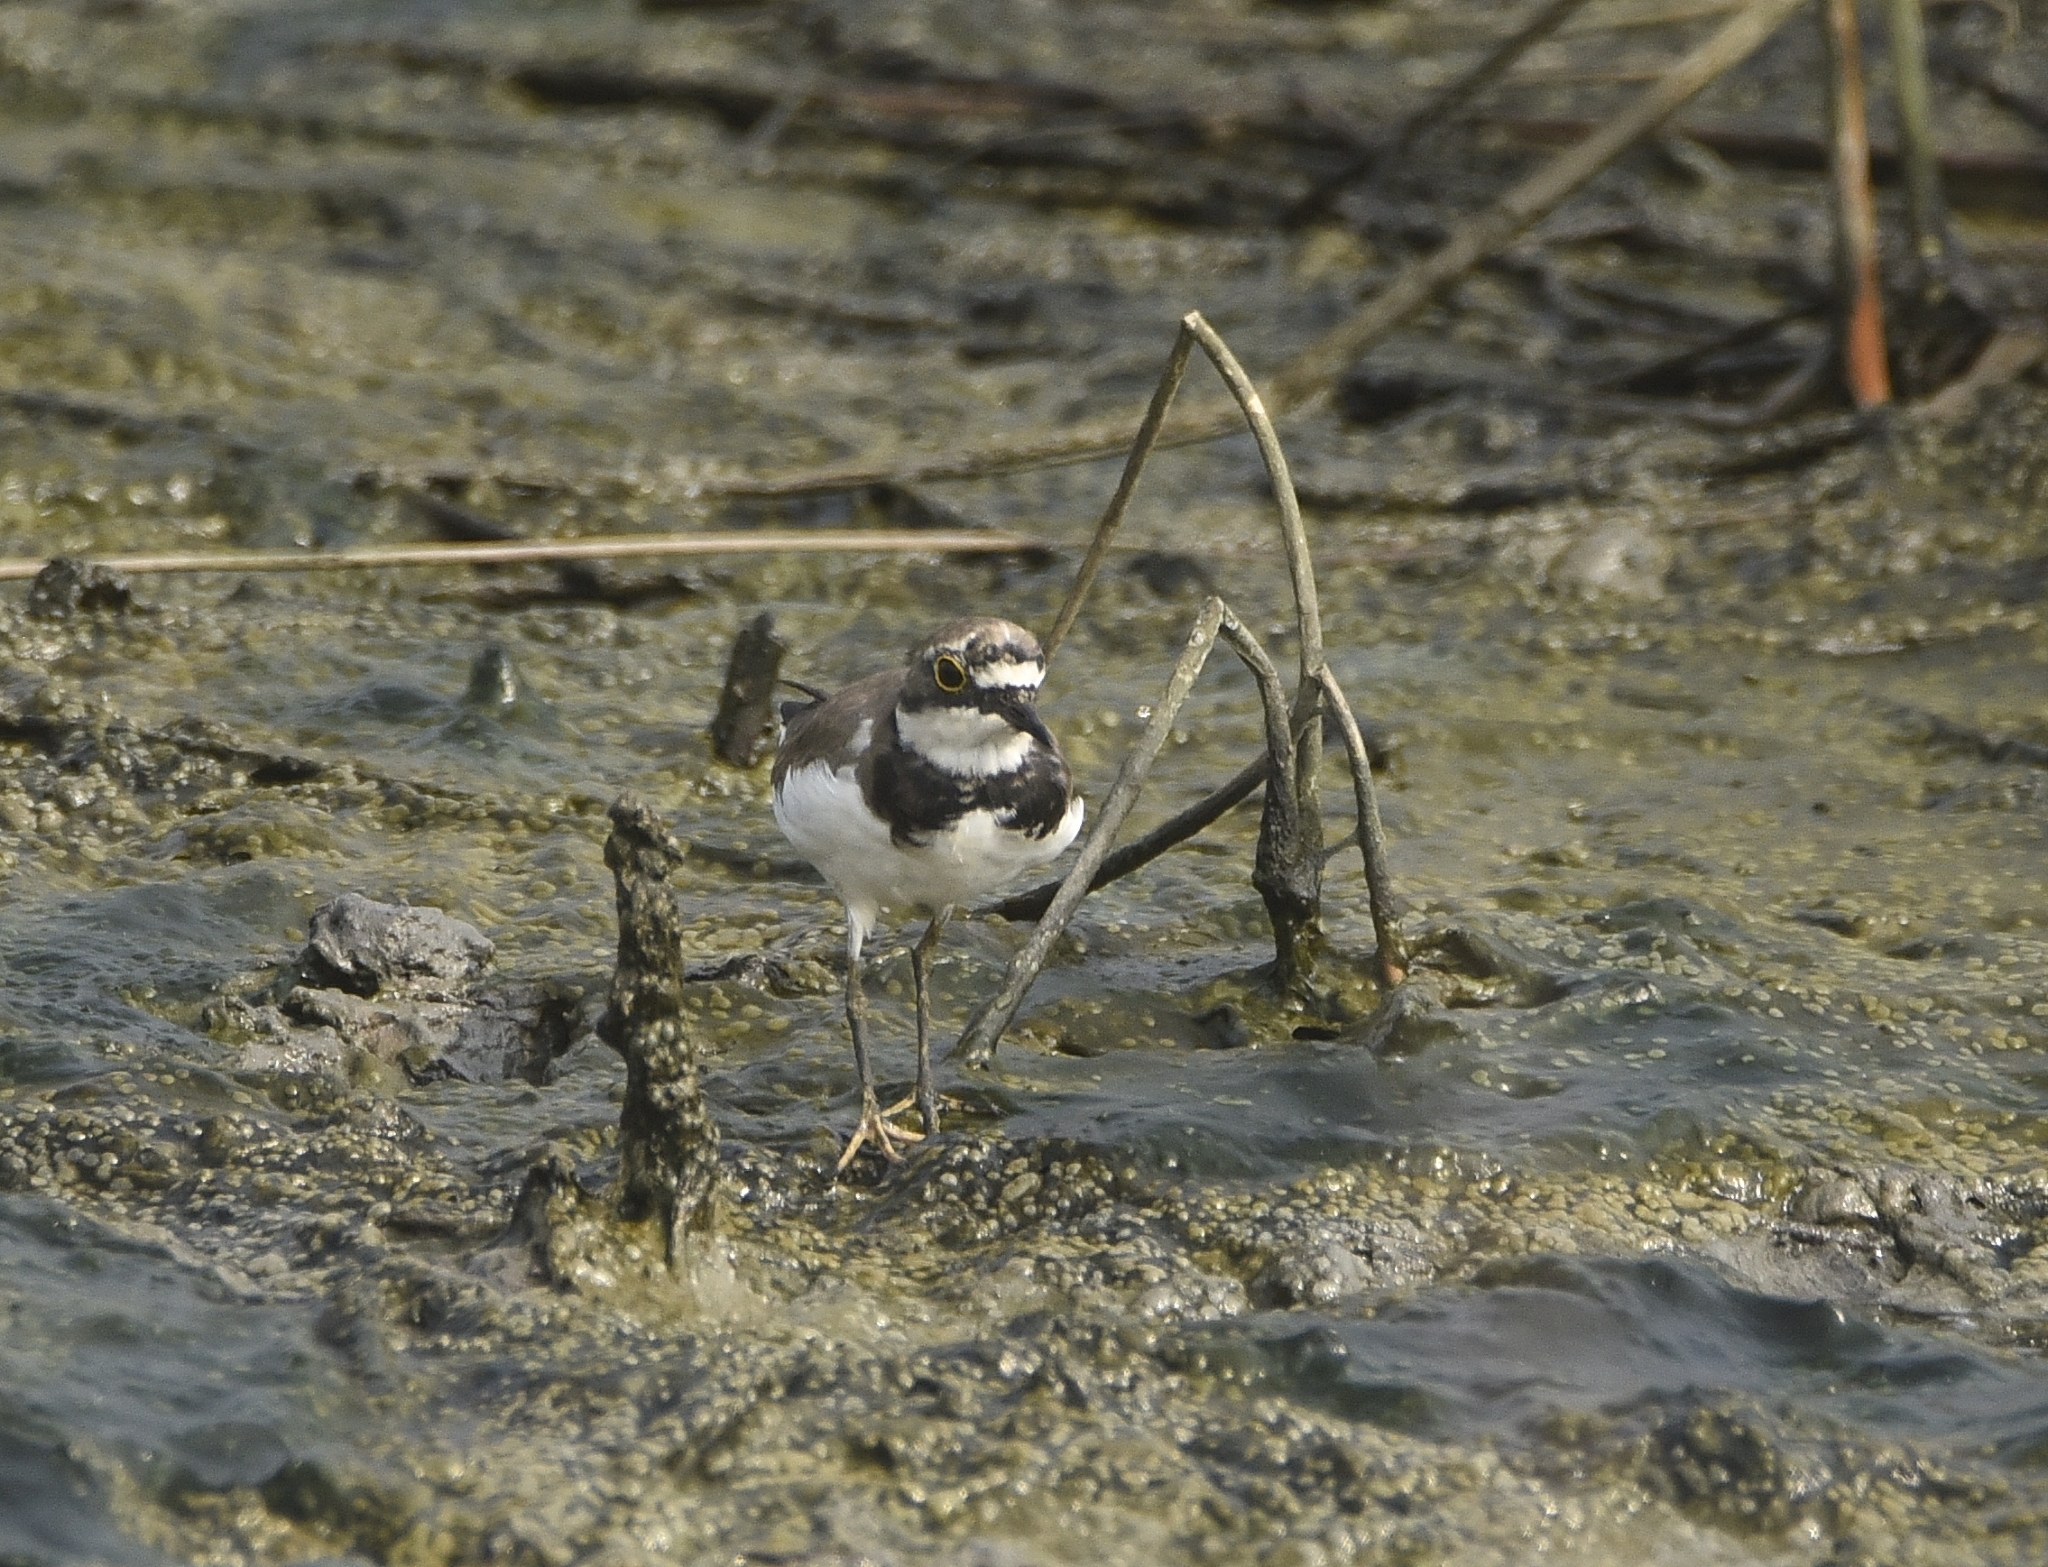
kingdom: Animalia
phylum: Chordata
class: Aves
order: Charadriiformes
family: Charadriidae
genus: Charadrius
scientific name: Charadrius dubius
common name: Little ringed plover
